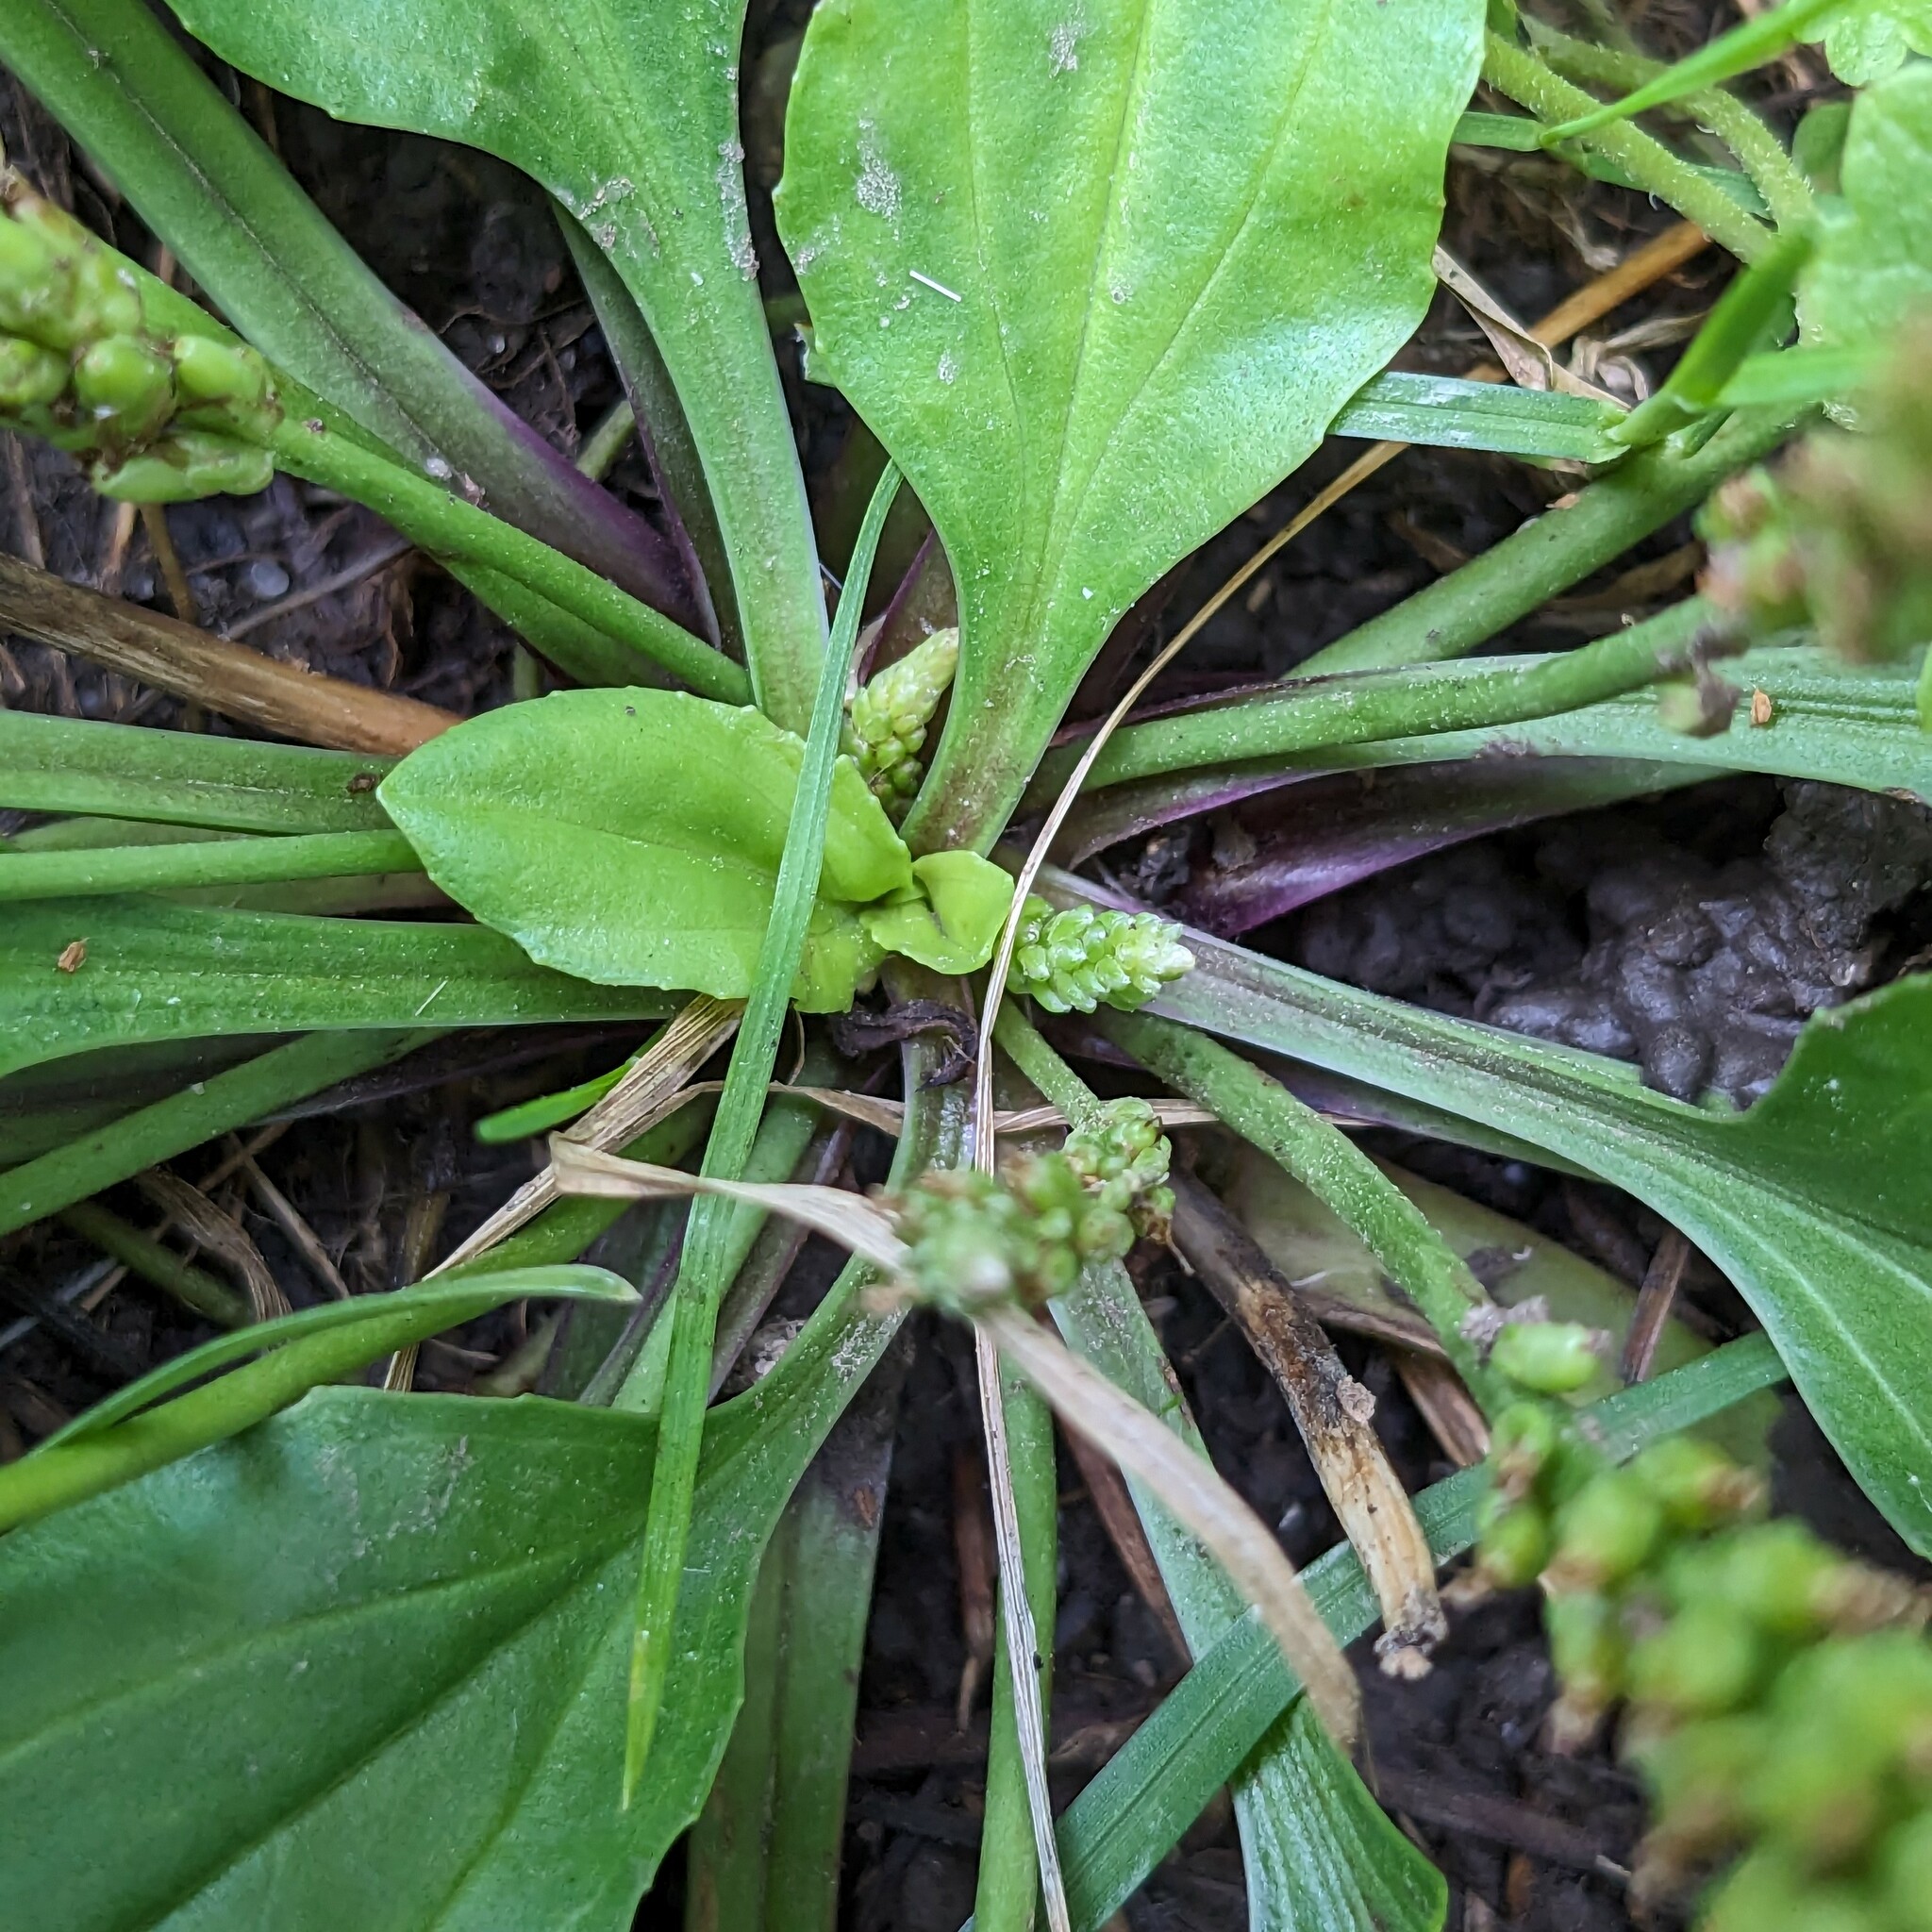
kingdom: Plantae
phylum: Tracheophyta
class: Magnoliopsida
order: Lamiales
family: Plantaginaceae
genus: Plantago
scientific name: Plantago rugelii
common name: American plantain
